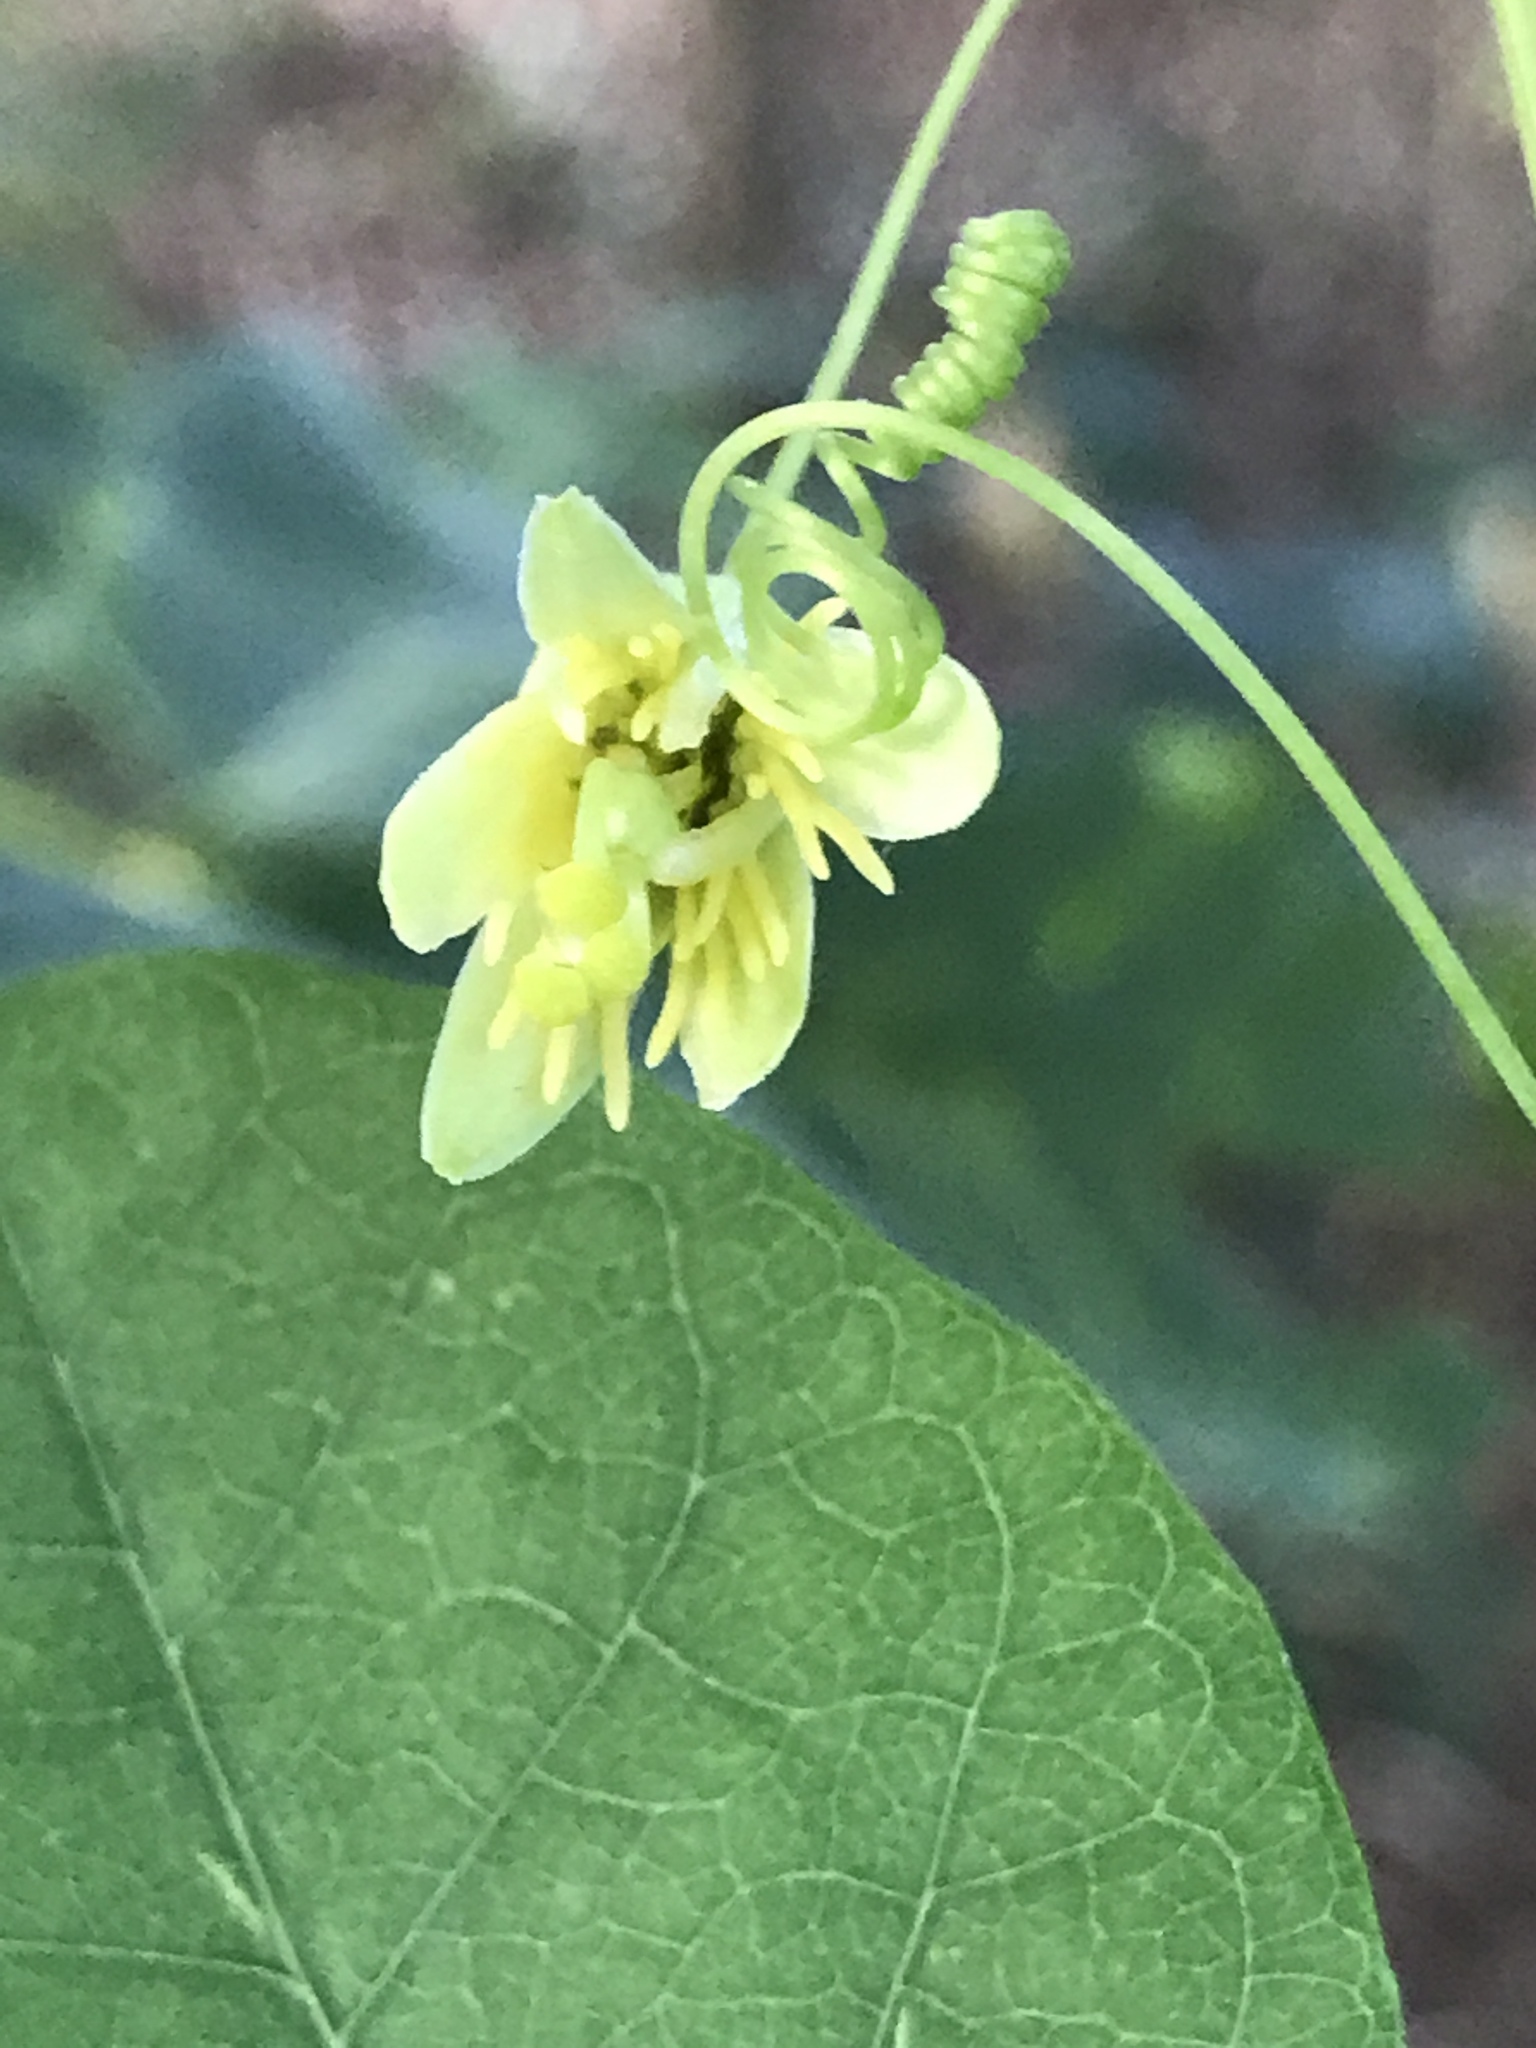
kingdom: Plantae
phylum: Tracheophyta
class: Magnoliopsida
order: Malpighiales
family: Passifloraceae
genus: Passiflora
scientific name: Passiflora lutea
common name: Yellow passionflower
